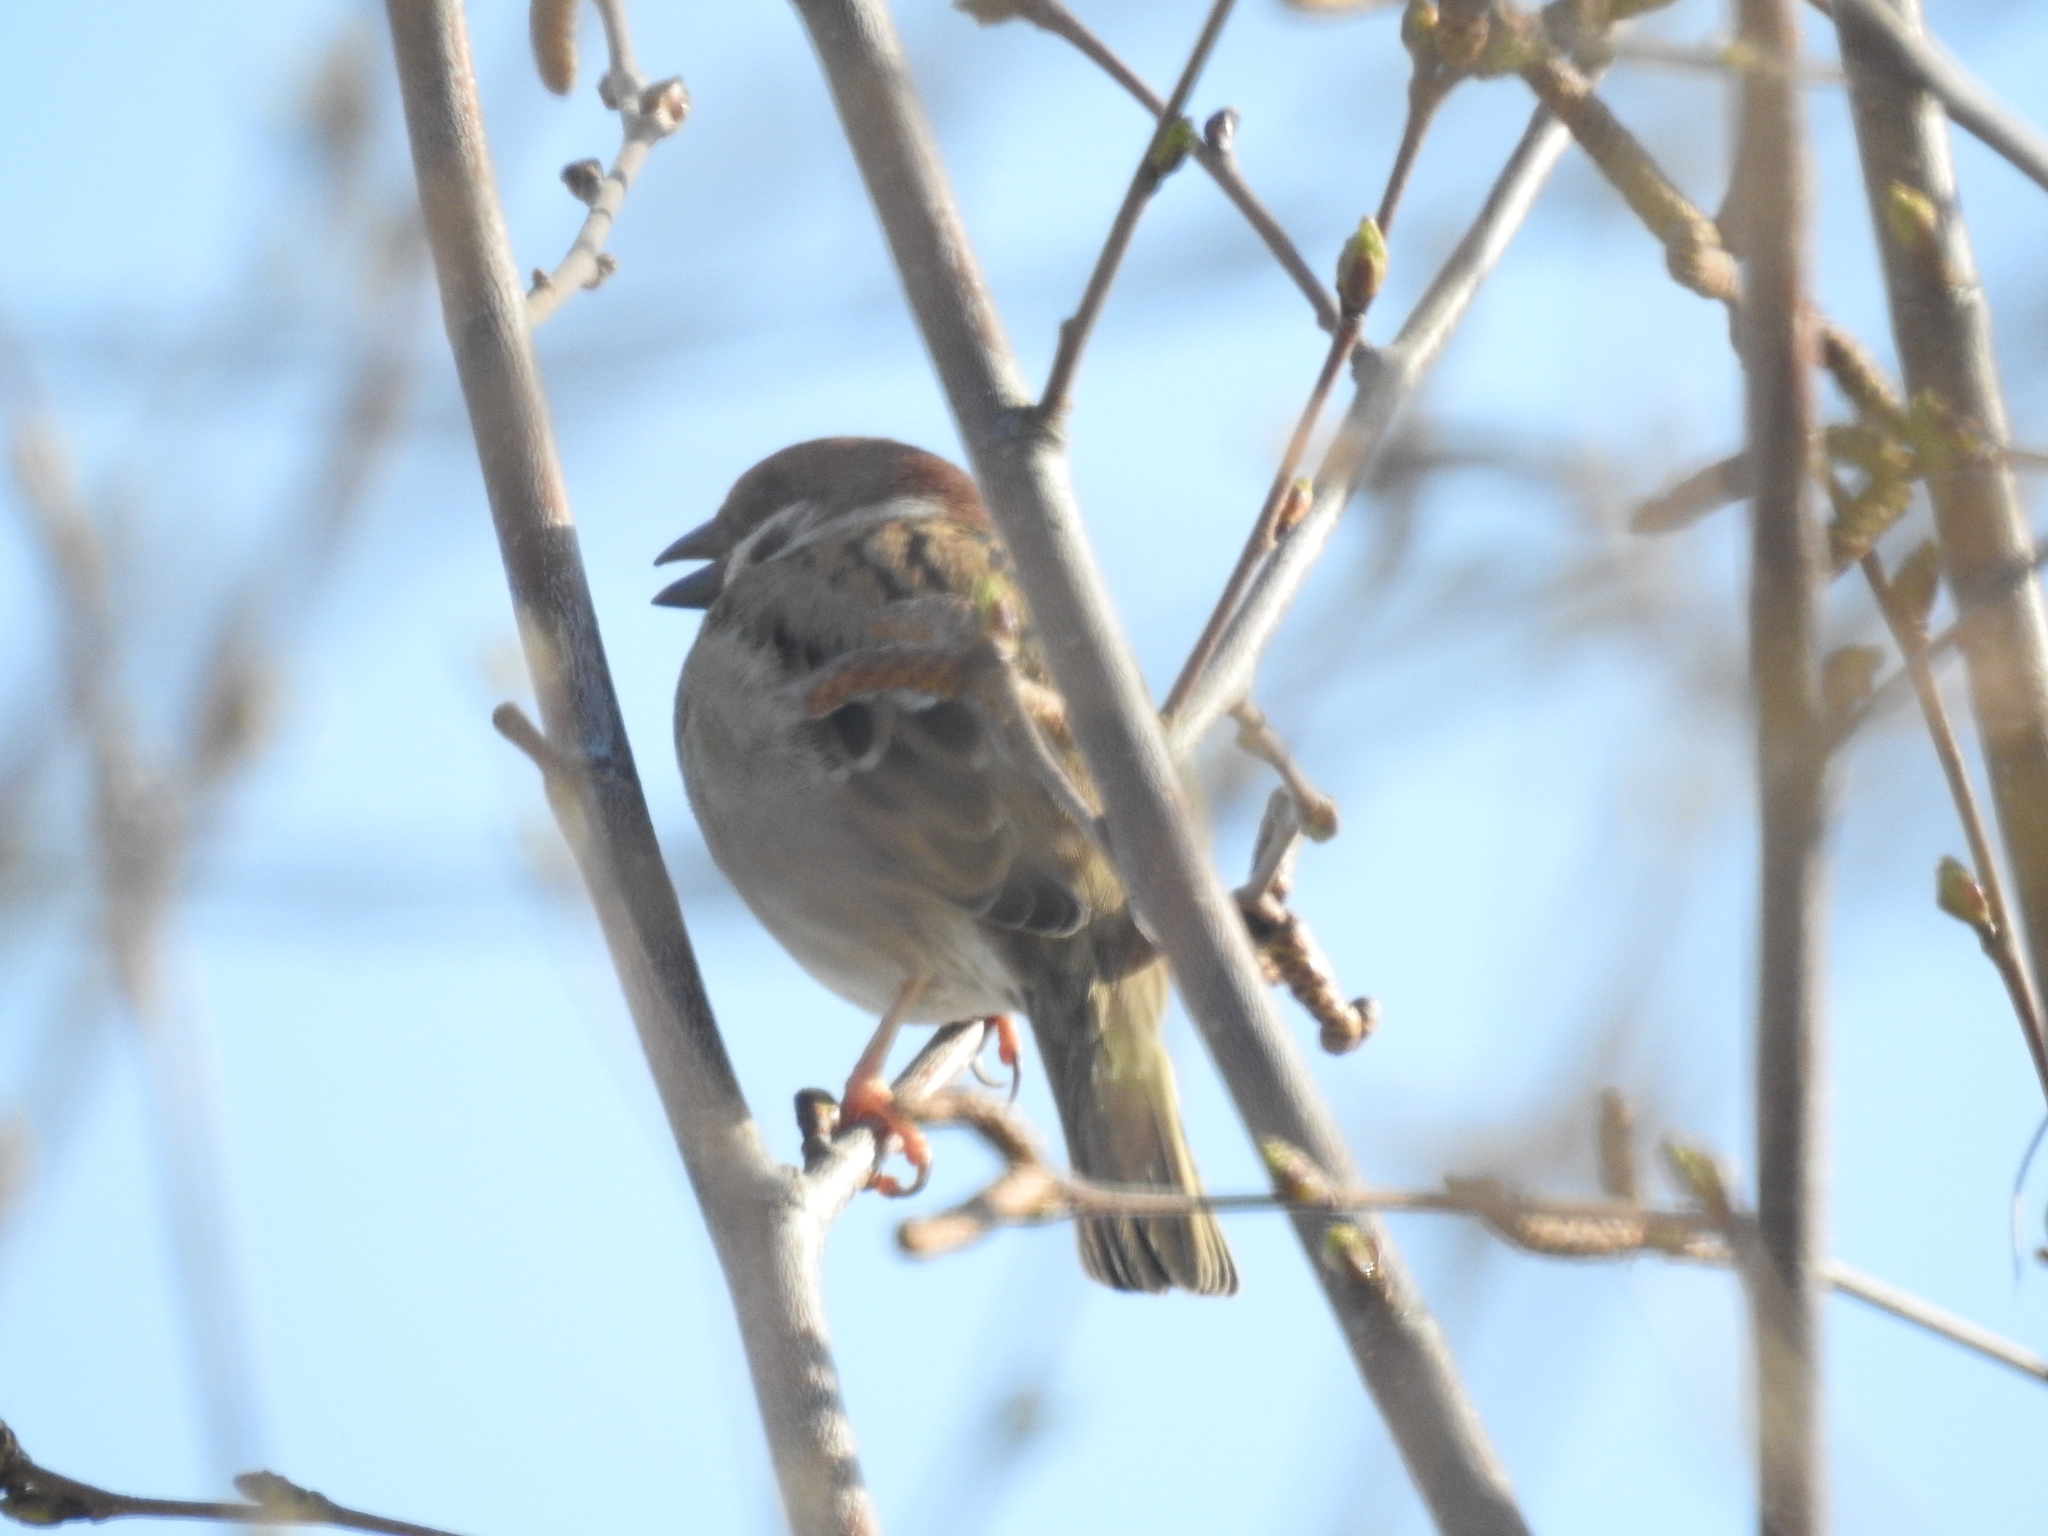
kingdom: Animalia
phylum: Chordata
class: Aves
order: Passeriformes
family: Passeridae
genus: Passer
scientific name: Passer montanus
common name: Eurasian tree sparrow
